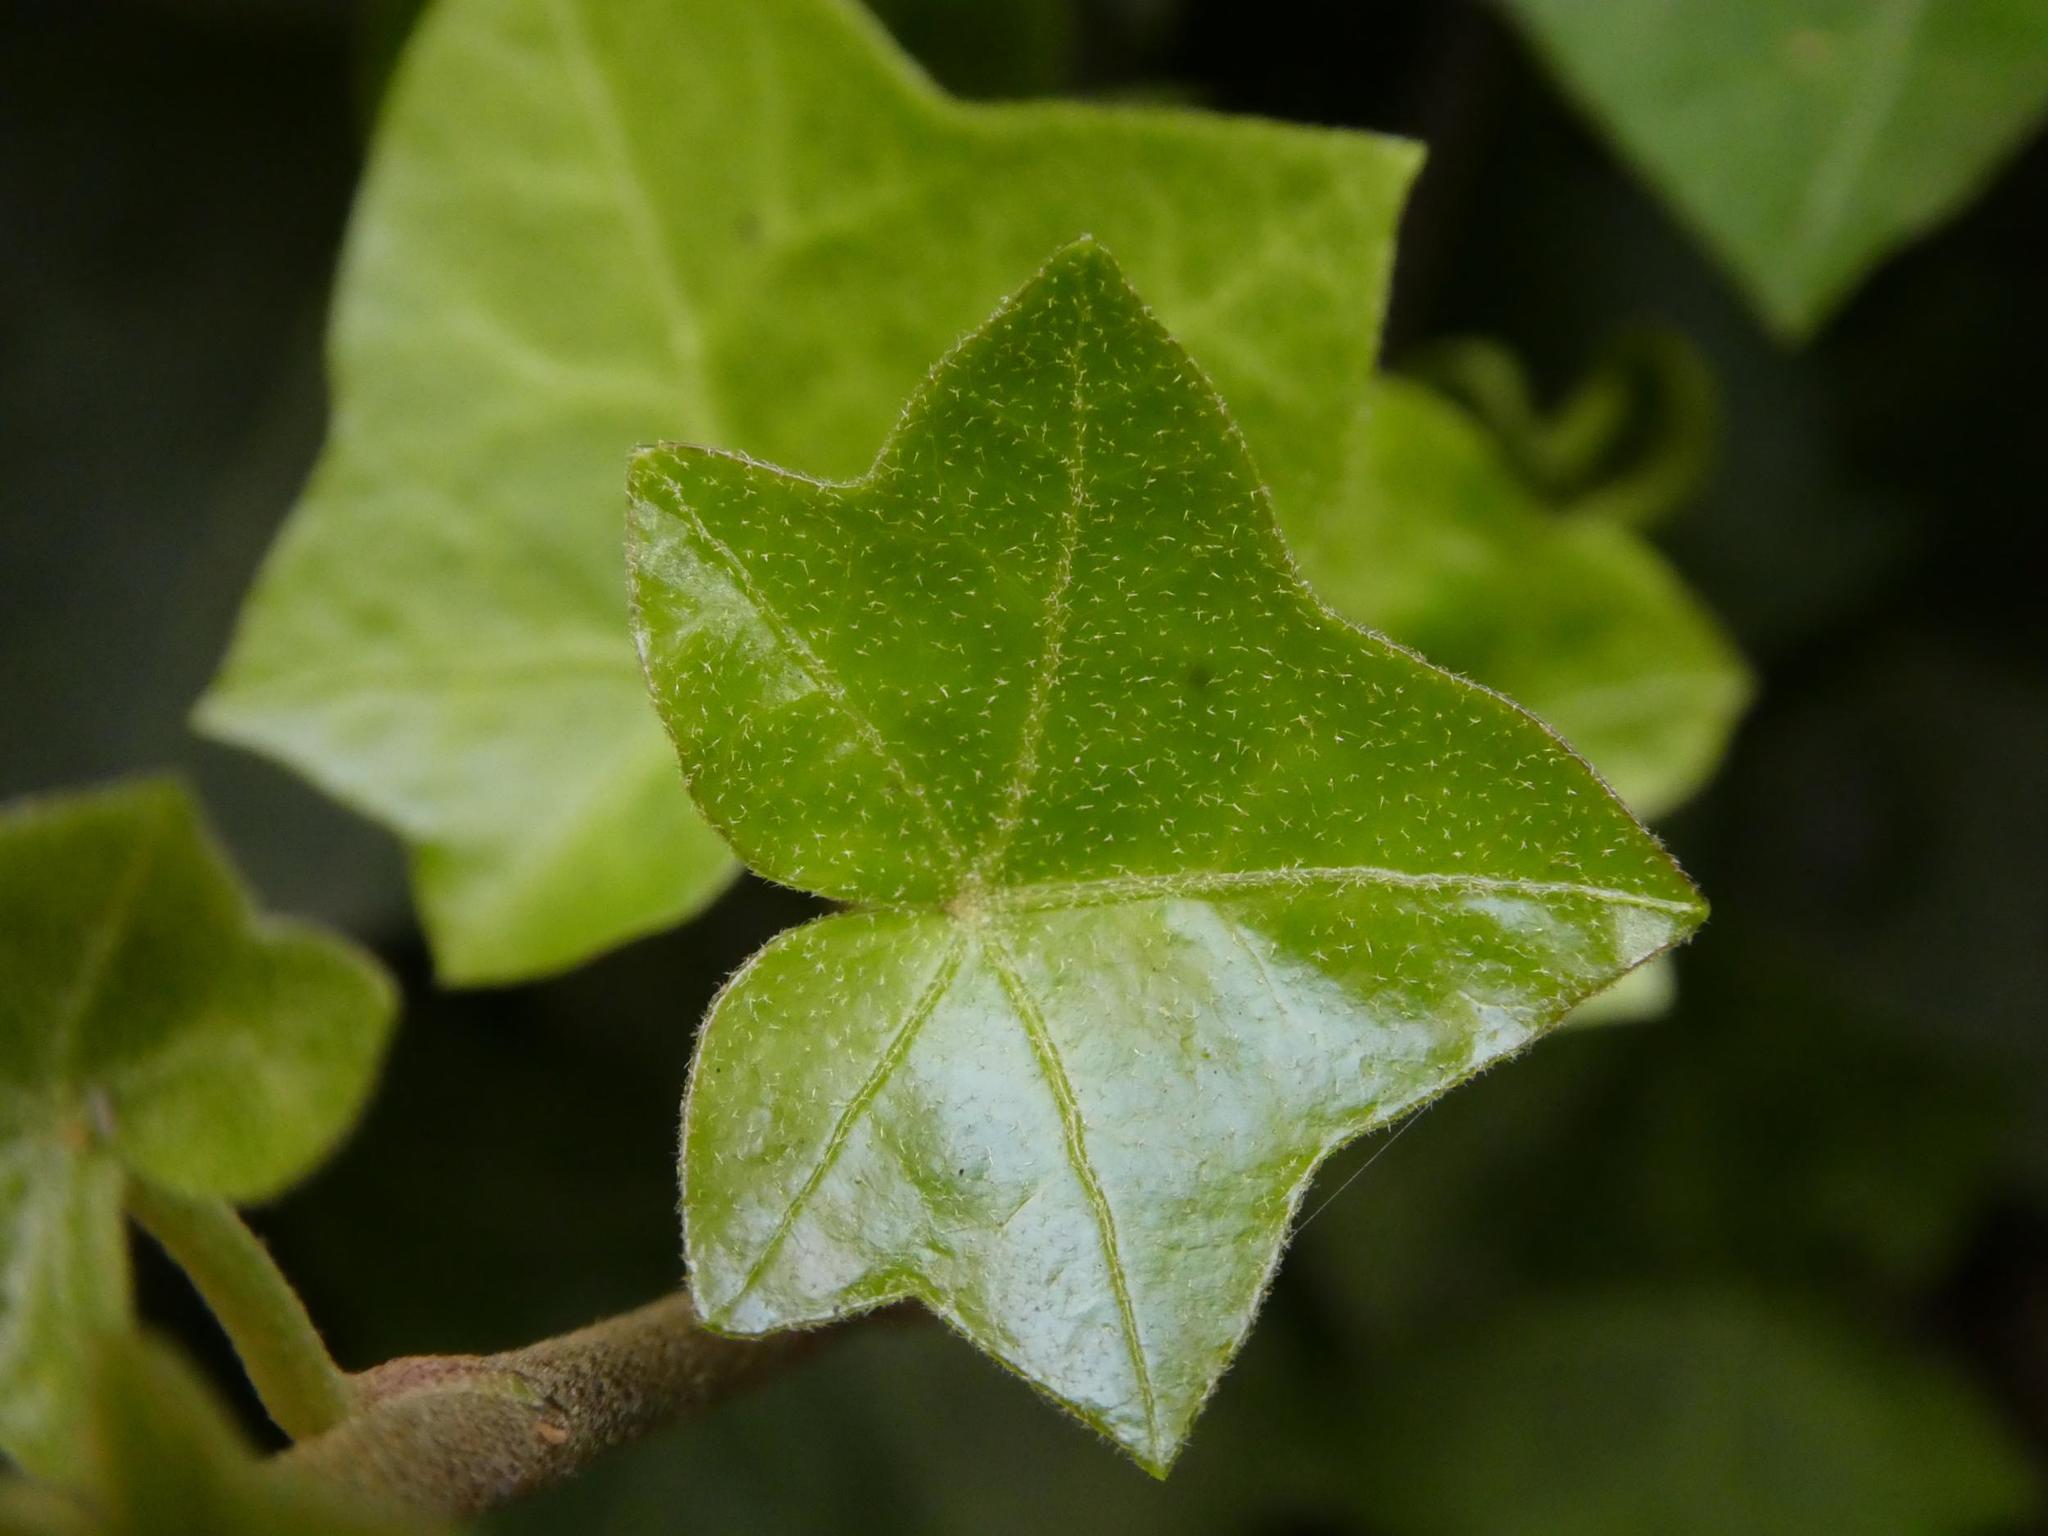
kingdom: Plantae
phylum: Tracheophyta
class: Magnoliopsida
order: Apiales
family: Araliaceae
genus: Hedera
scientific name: Hedera helix
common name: Ivy
